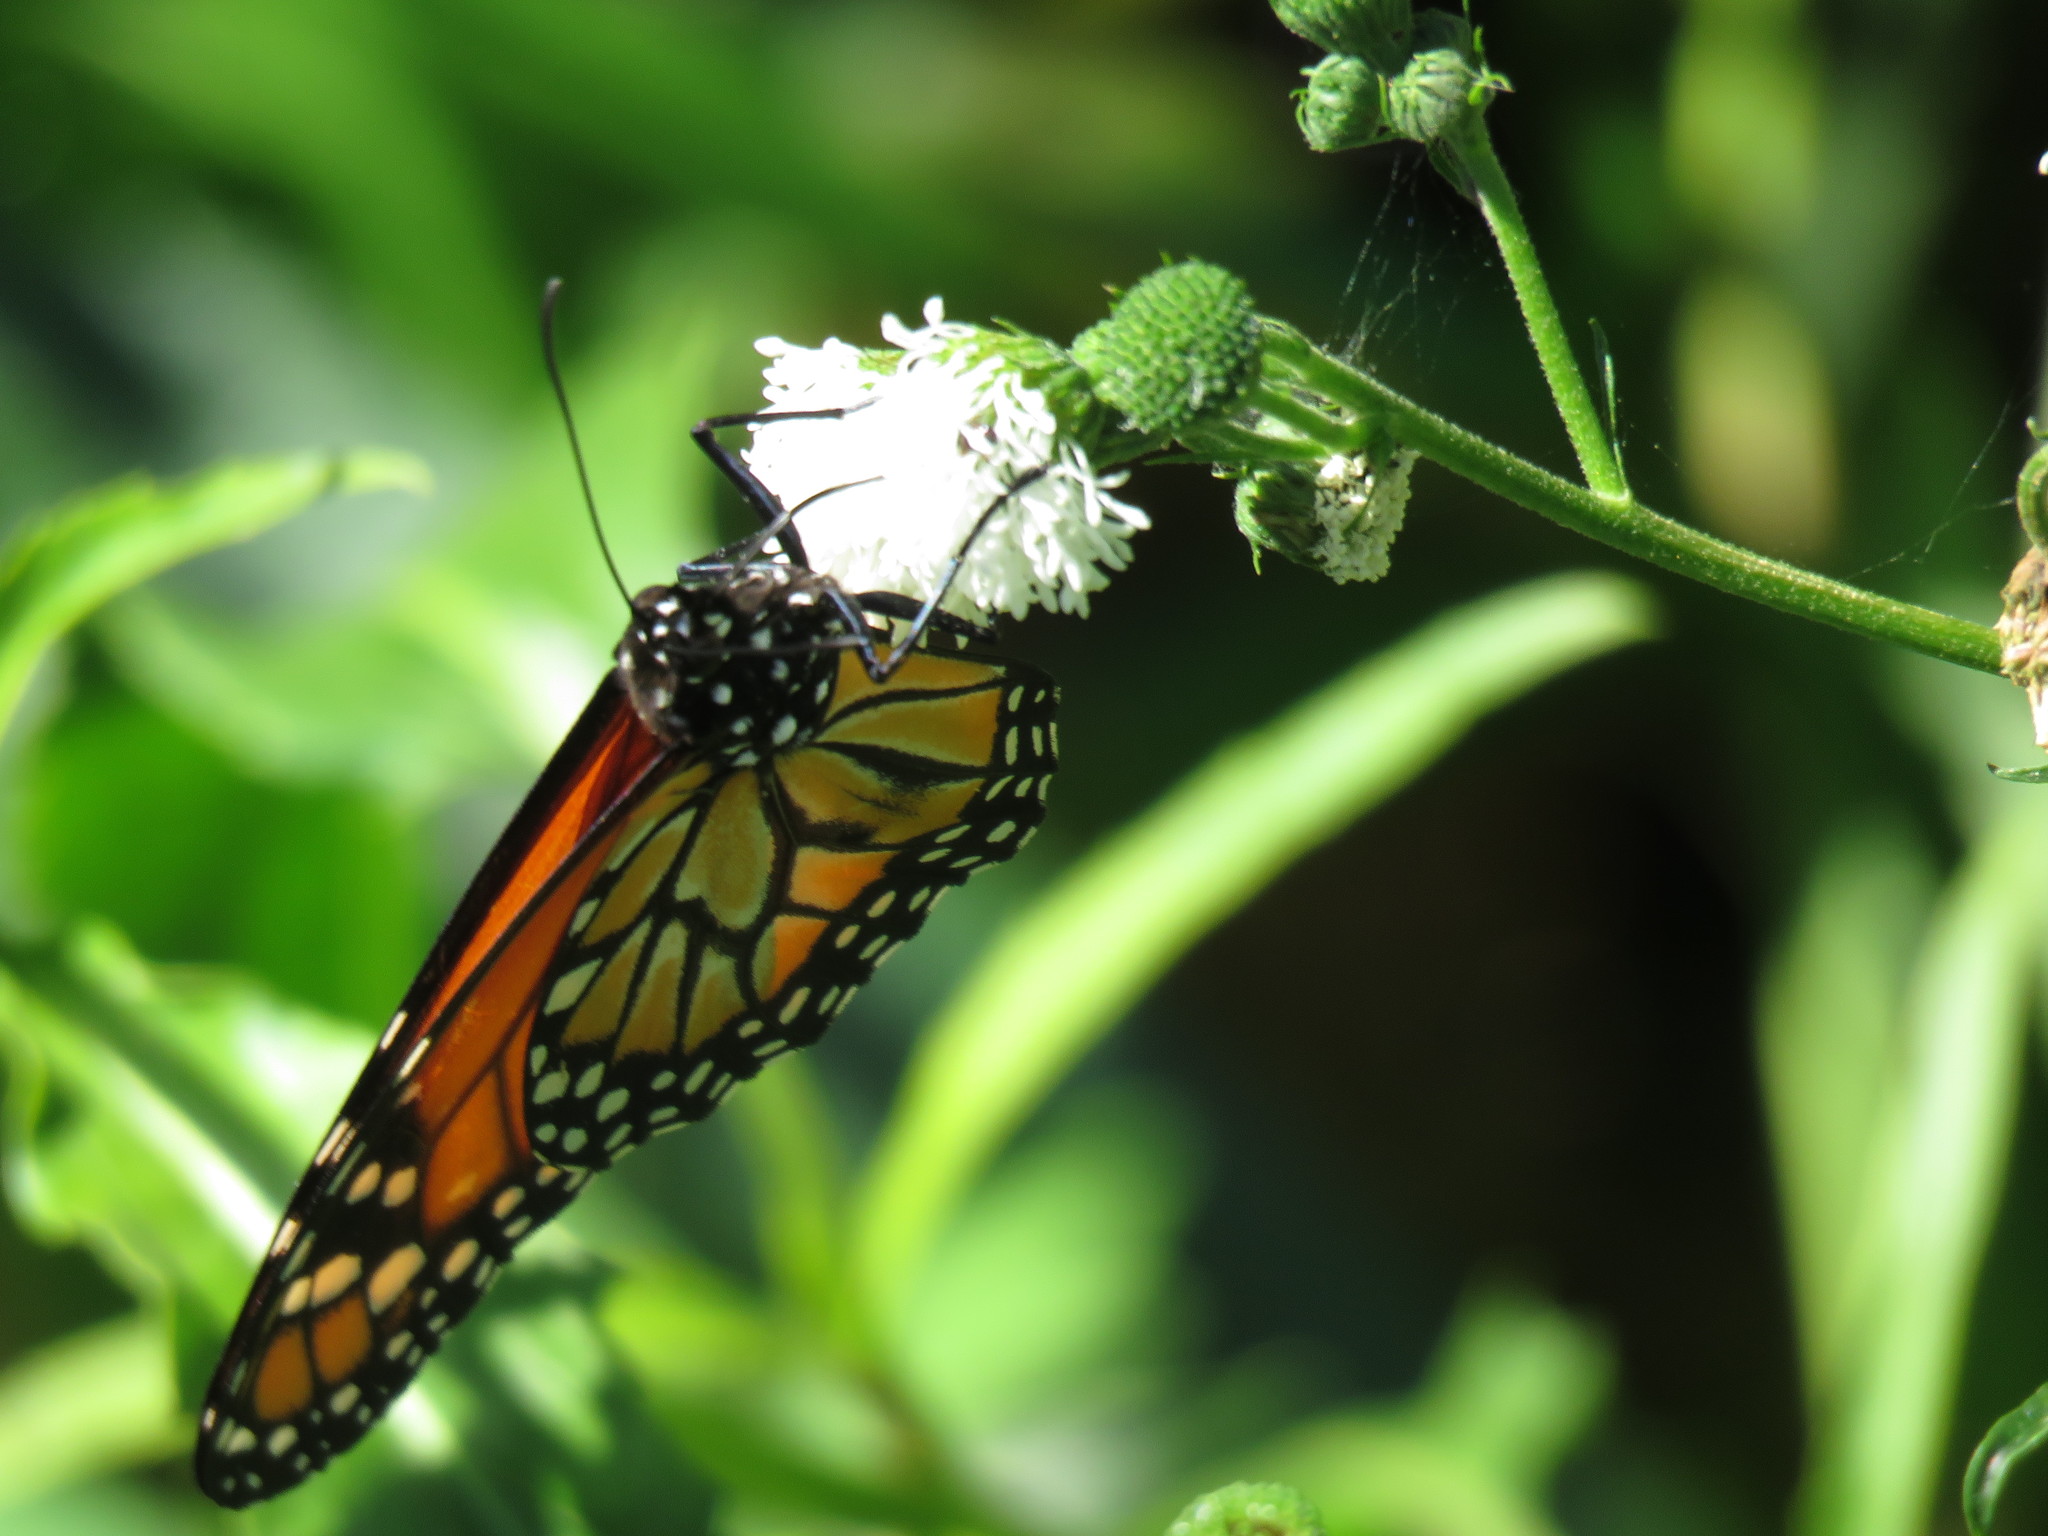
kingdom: Animalia
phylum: Arthropoda
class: Insecta
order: Lepidoptera
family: Nymphalidae
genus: Danaus
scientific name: Danaus erippus
